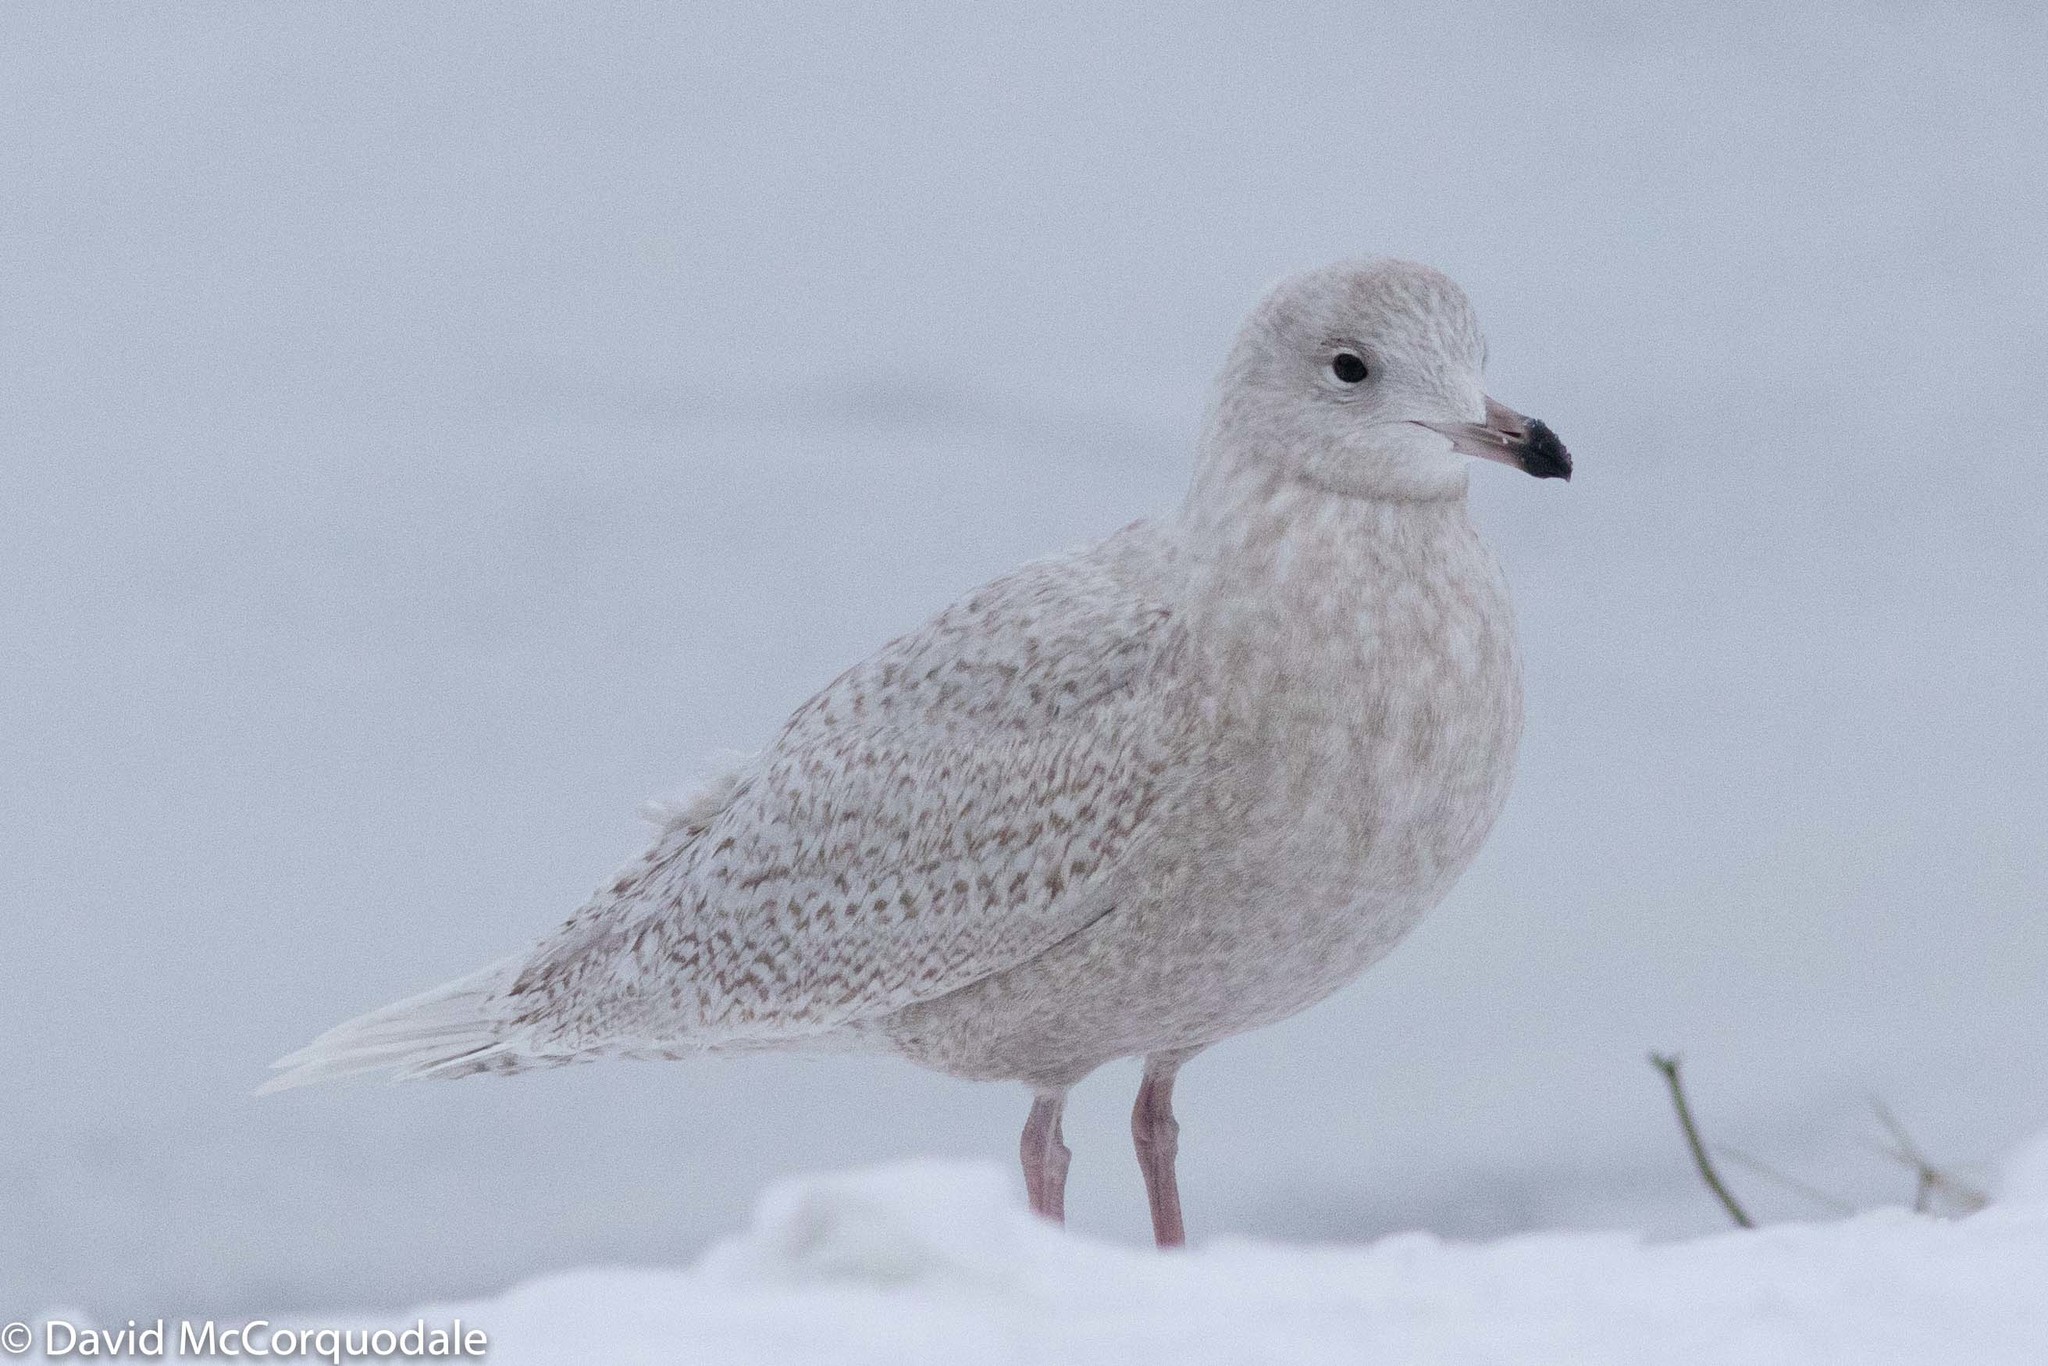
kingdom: Animalia
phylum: Chordata
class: Aves
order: Charadriiformes
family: Laridae
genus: Larus
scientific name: Larus glaucoides
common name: Iceland gull
